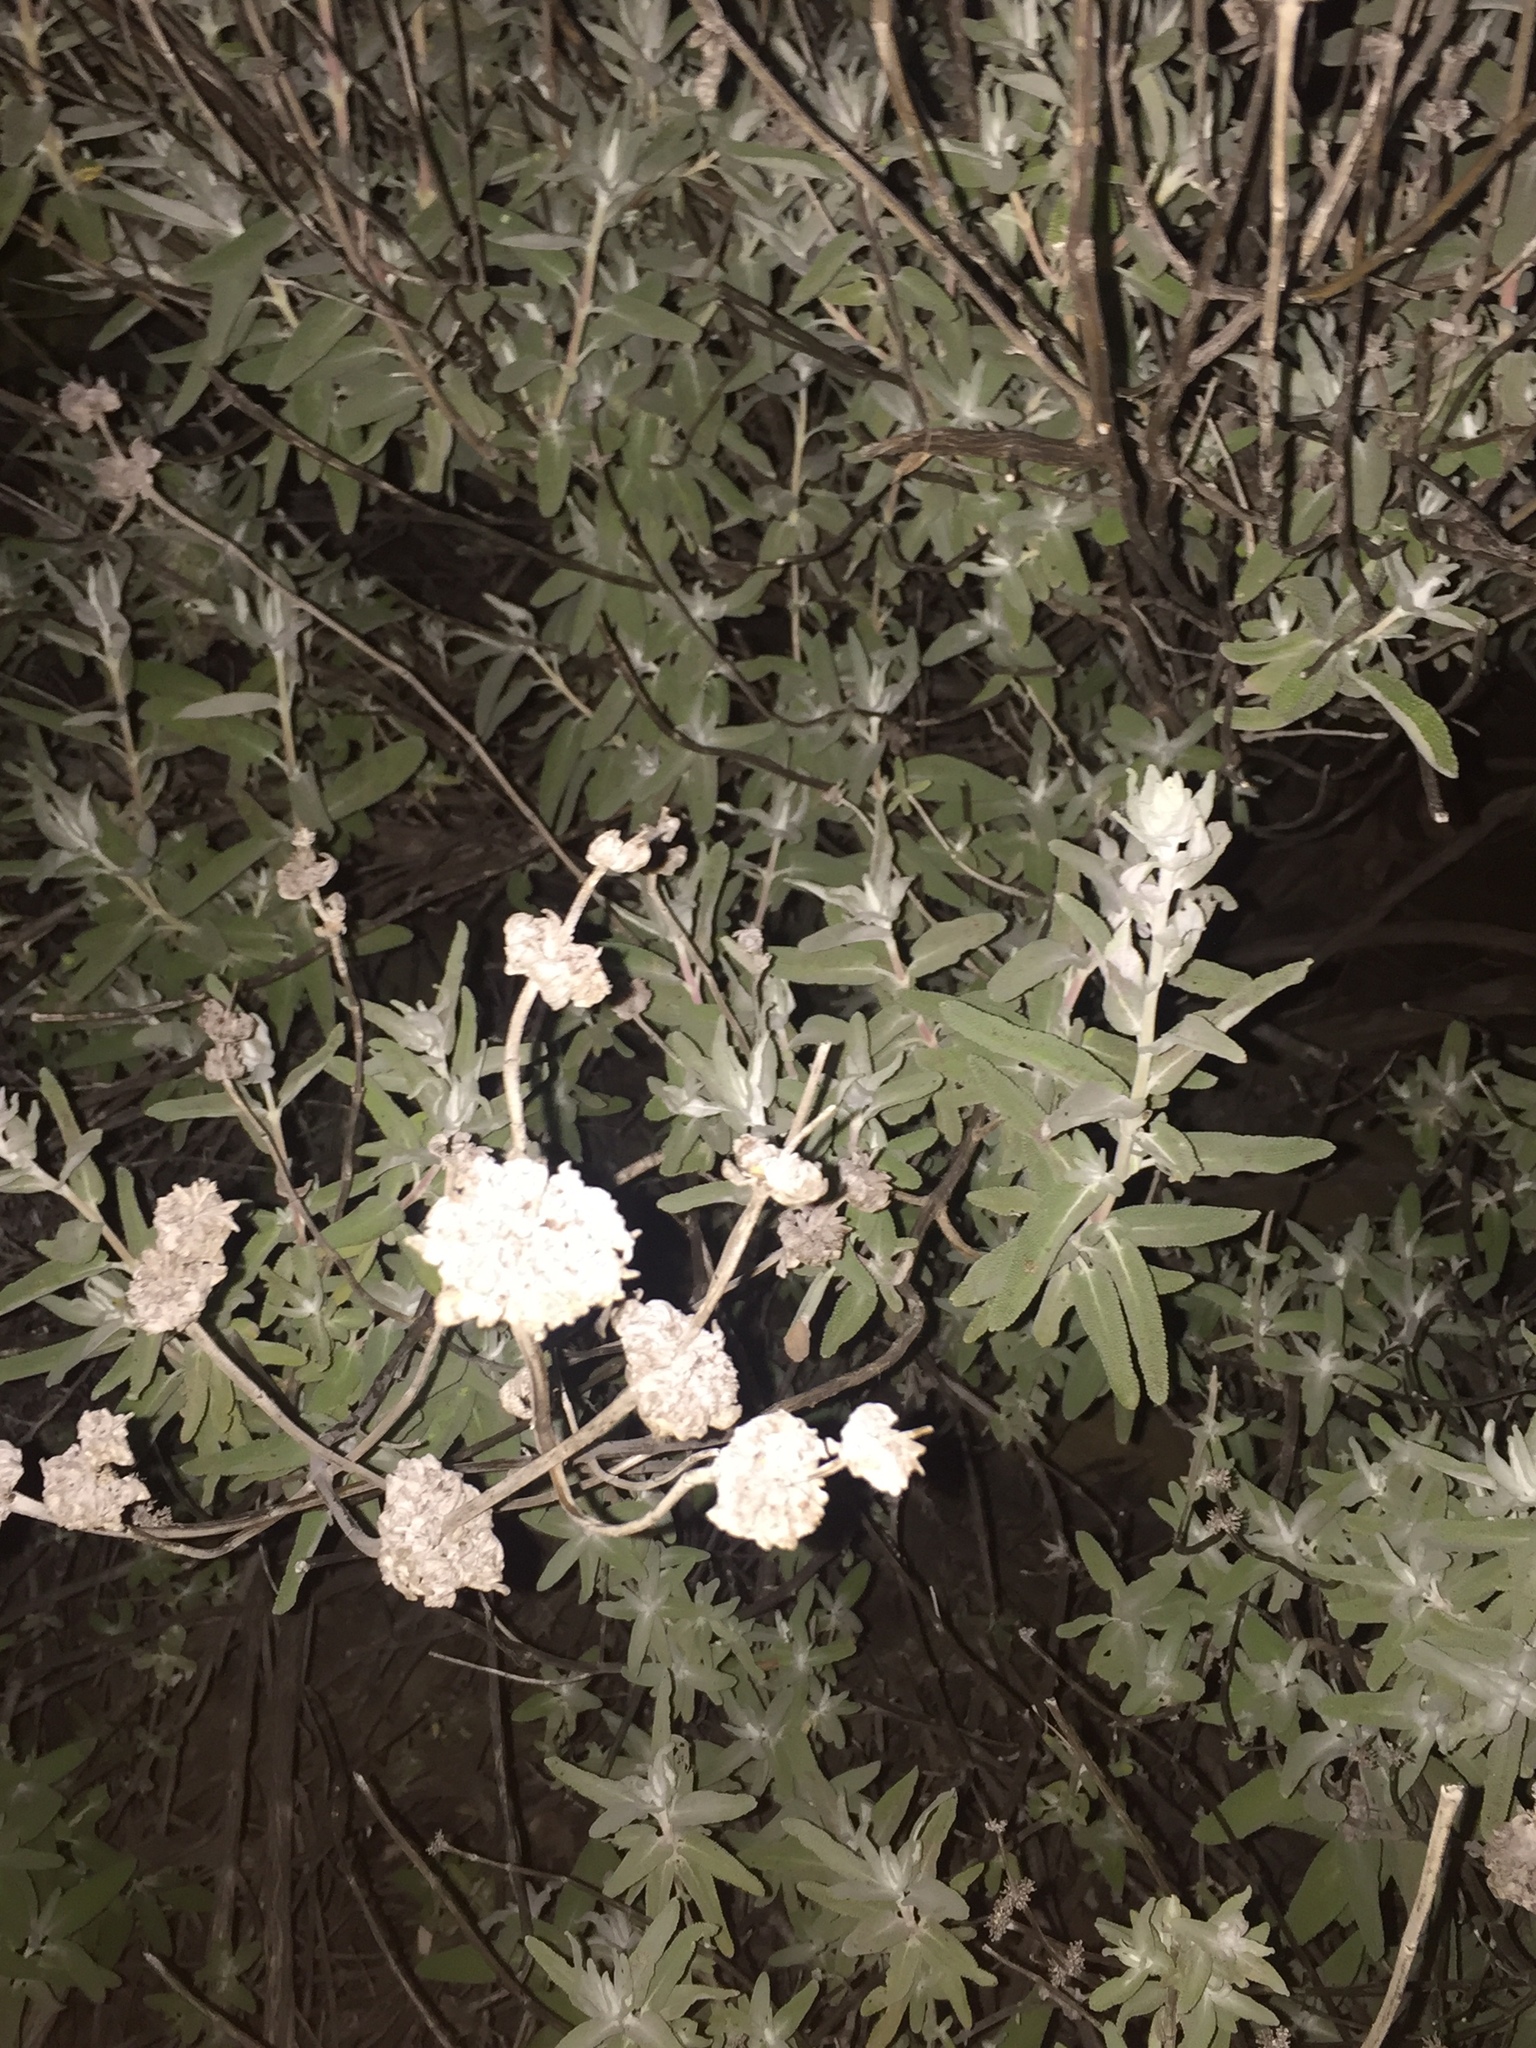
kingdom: Plantae
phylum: Tracheophyta
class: Magnoliopsida
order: Lamiales
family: Lamiaceae
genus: Salvia
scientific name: Salvia leucophylla
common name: Purple sage
